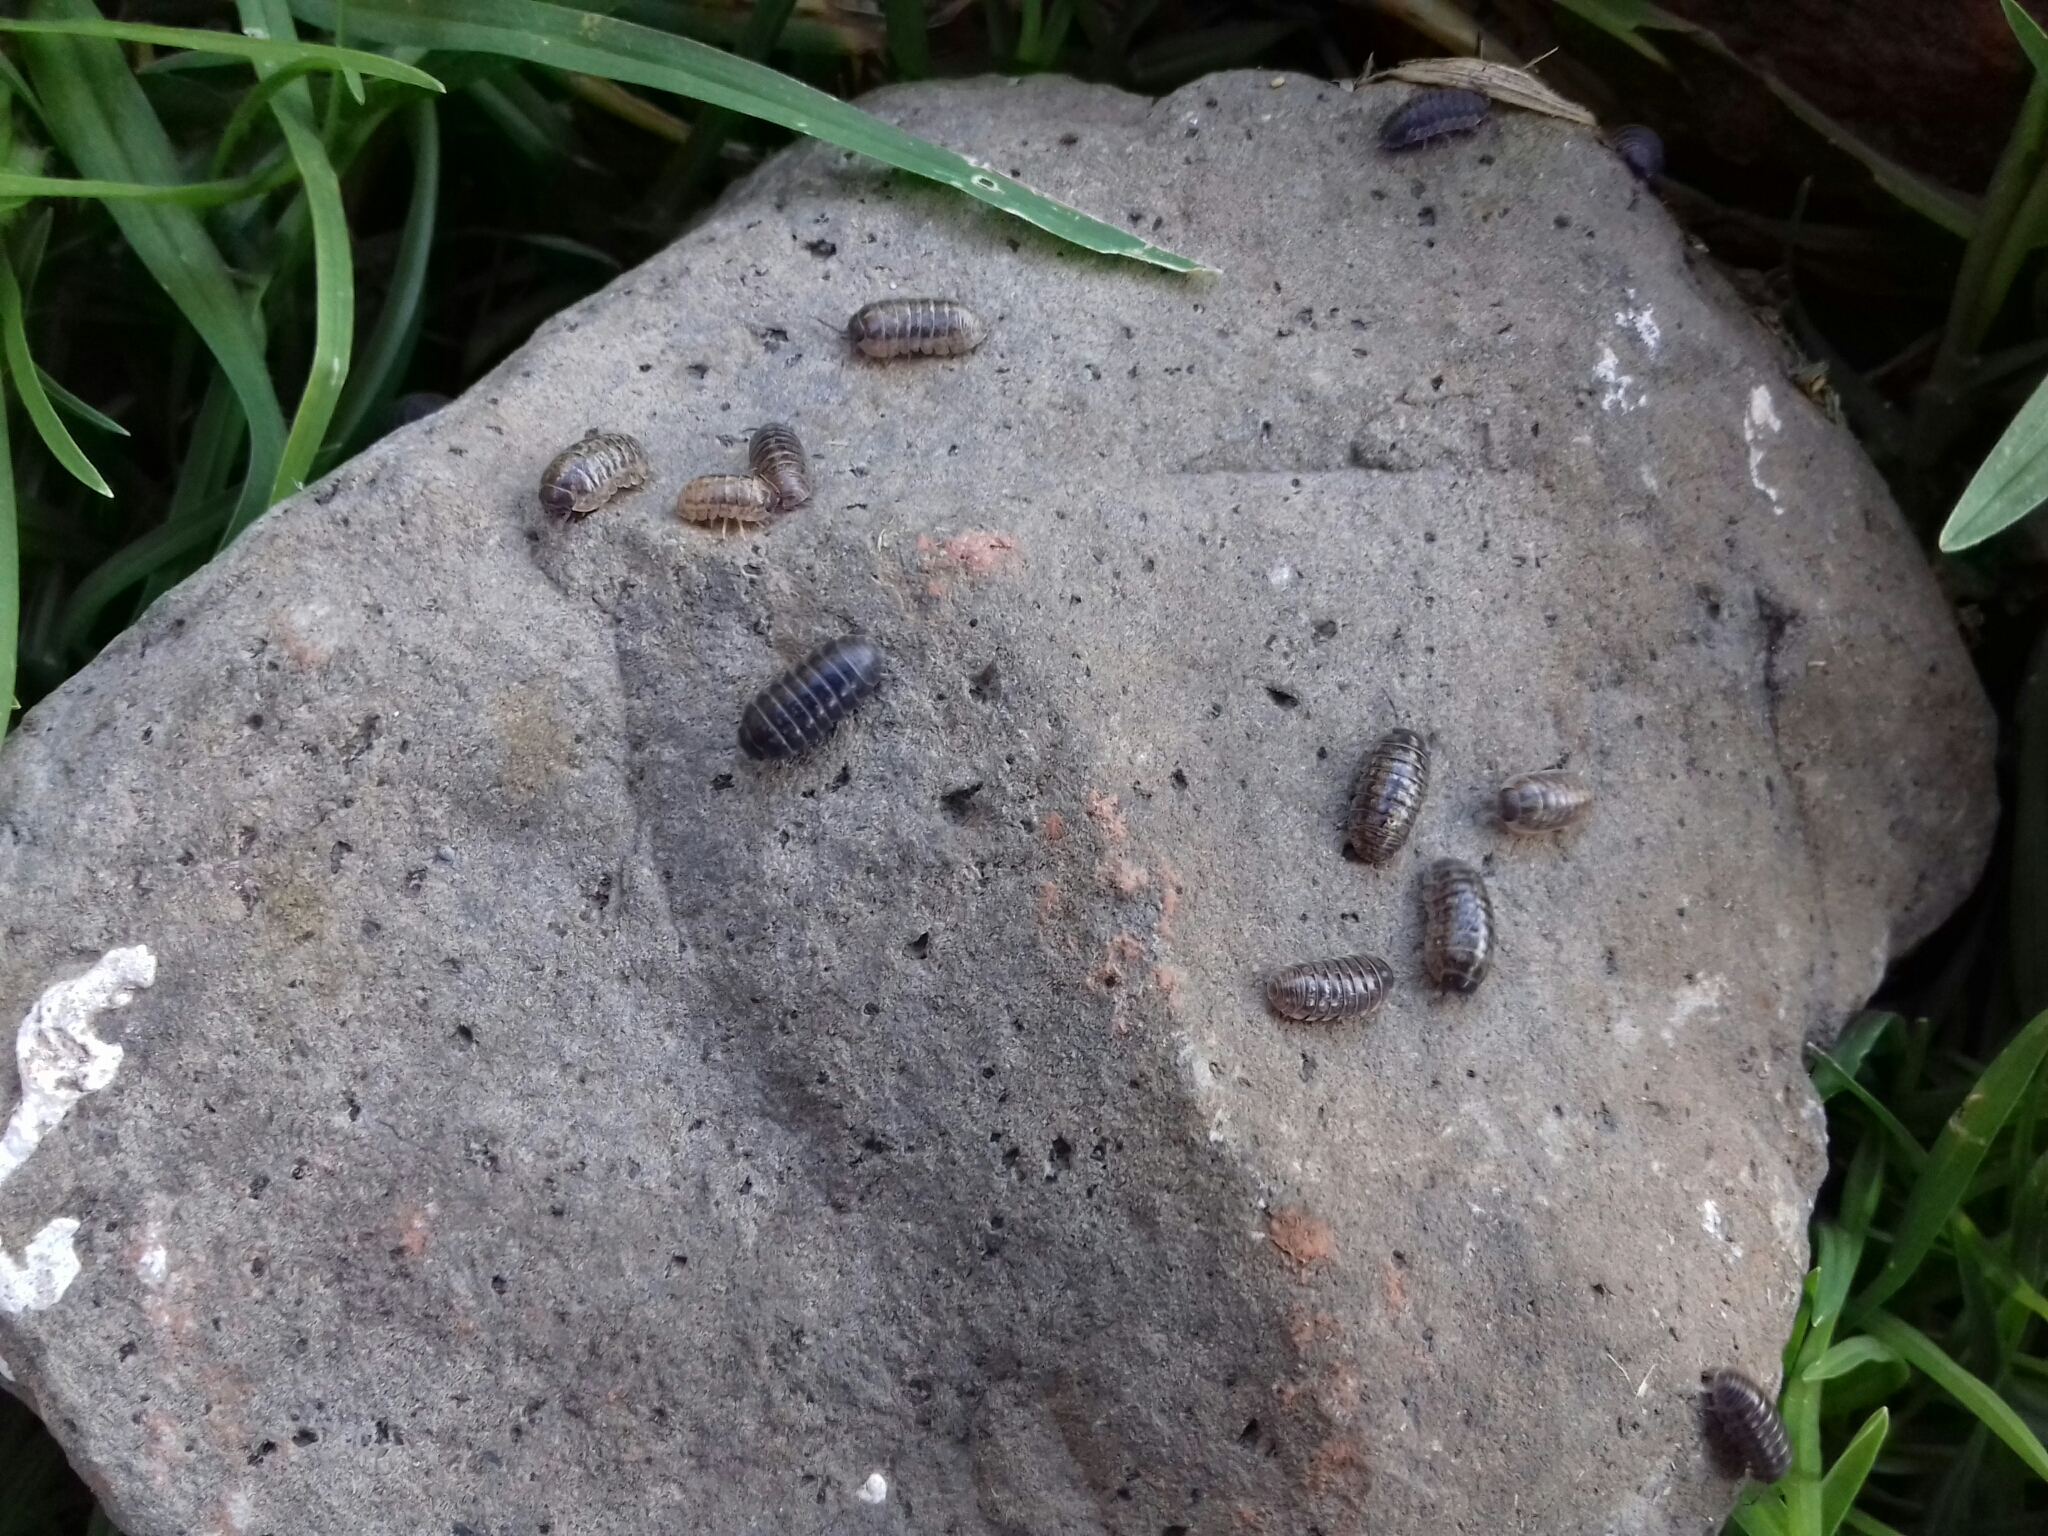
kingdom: Animalia
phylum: Arthropoda
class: Malacostraca
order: Isopoda
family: Armadillidiidae
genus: Armadillidium
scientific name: Armadillidium vulgare
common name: Common pill woodlouse
